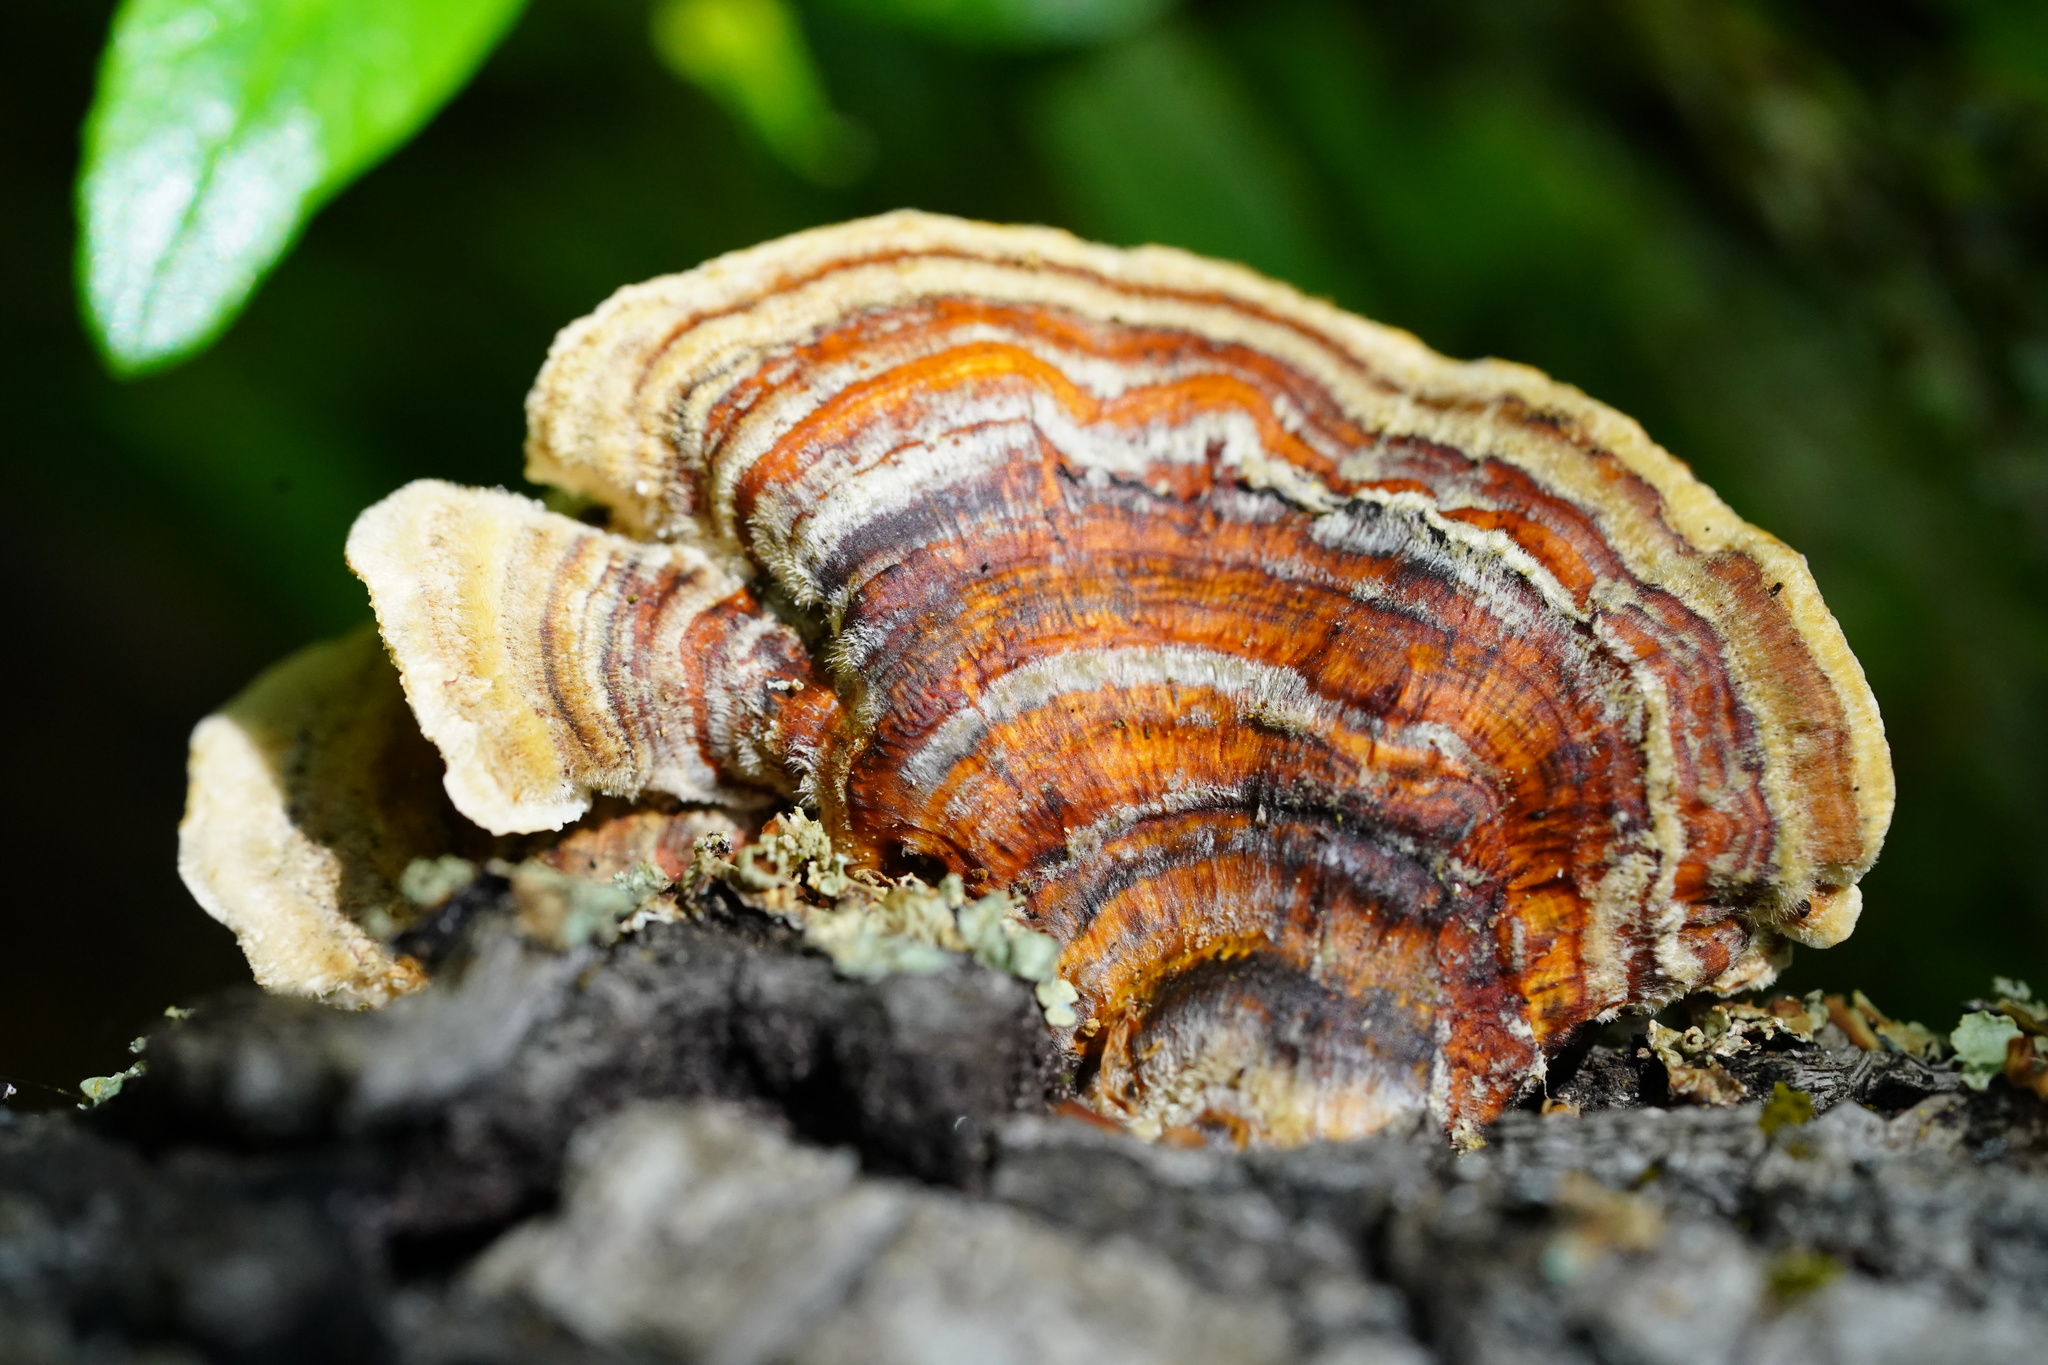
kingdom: Fungi
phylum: Basidiomycota
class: Agaricomycetes
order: Polyporales
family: Polyporaceae
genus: Trametes
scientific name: Trametes versicolor
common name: Turkeytail
